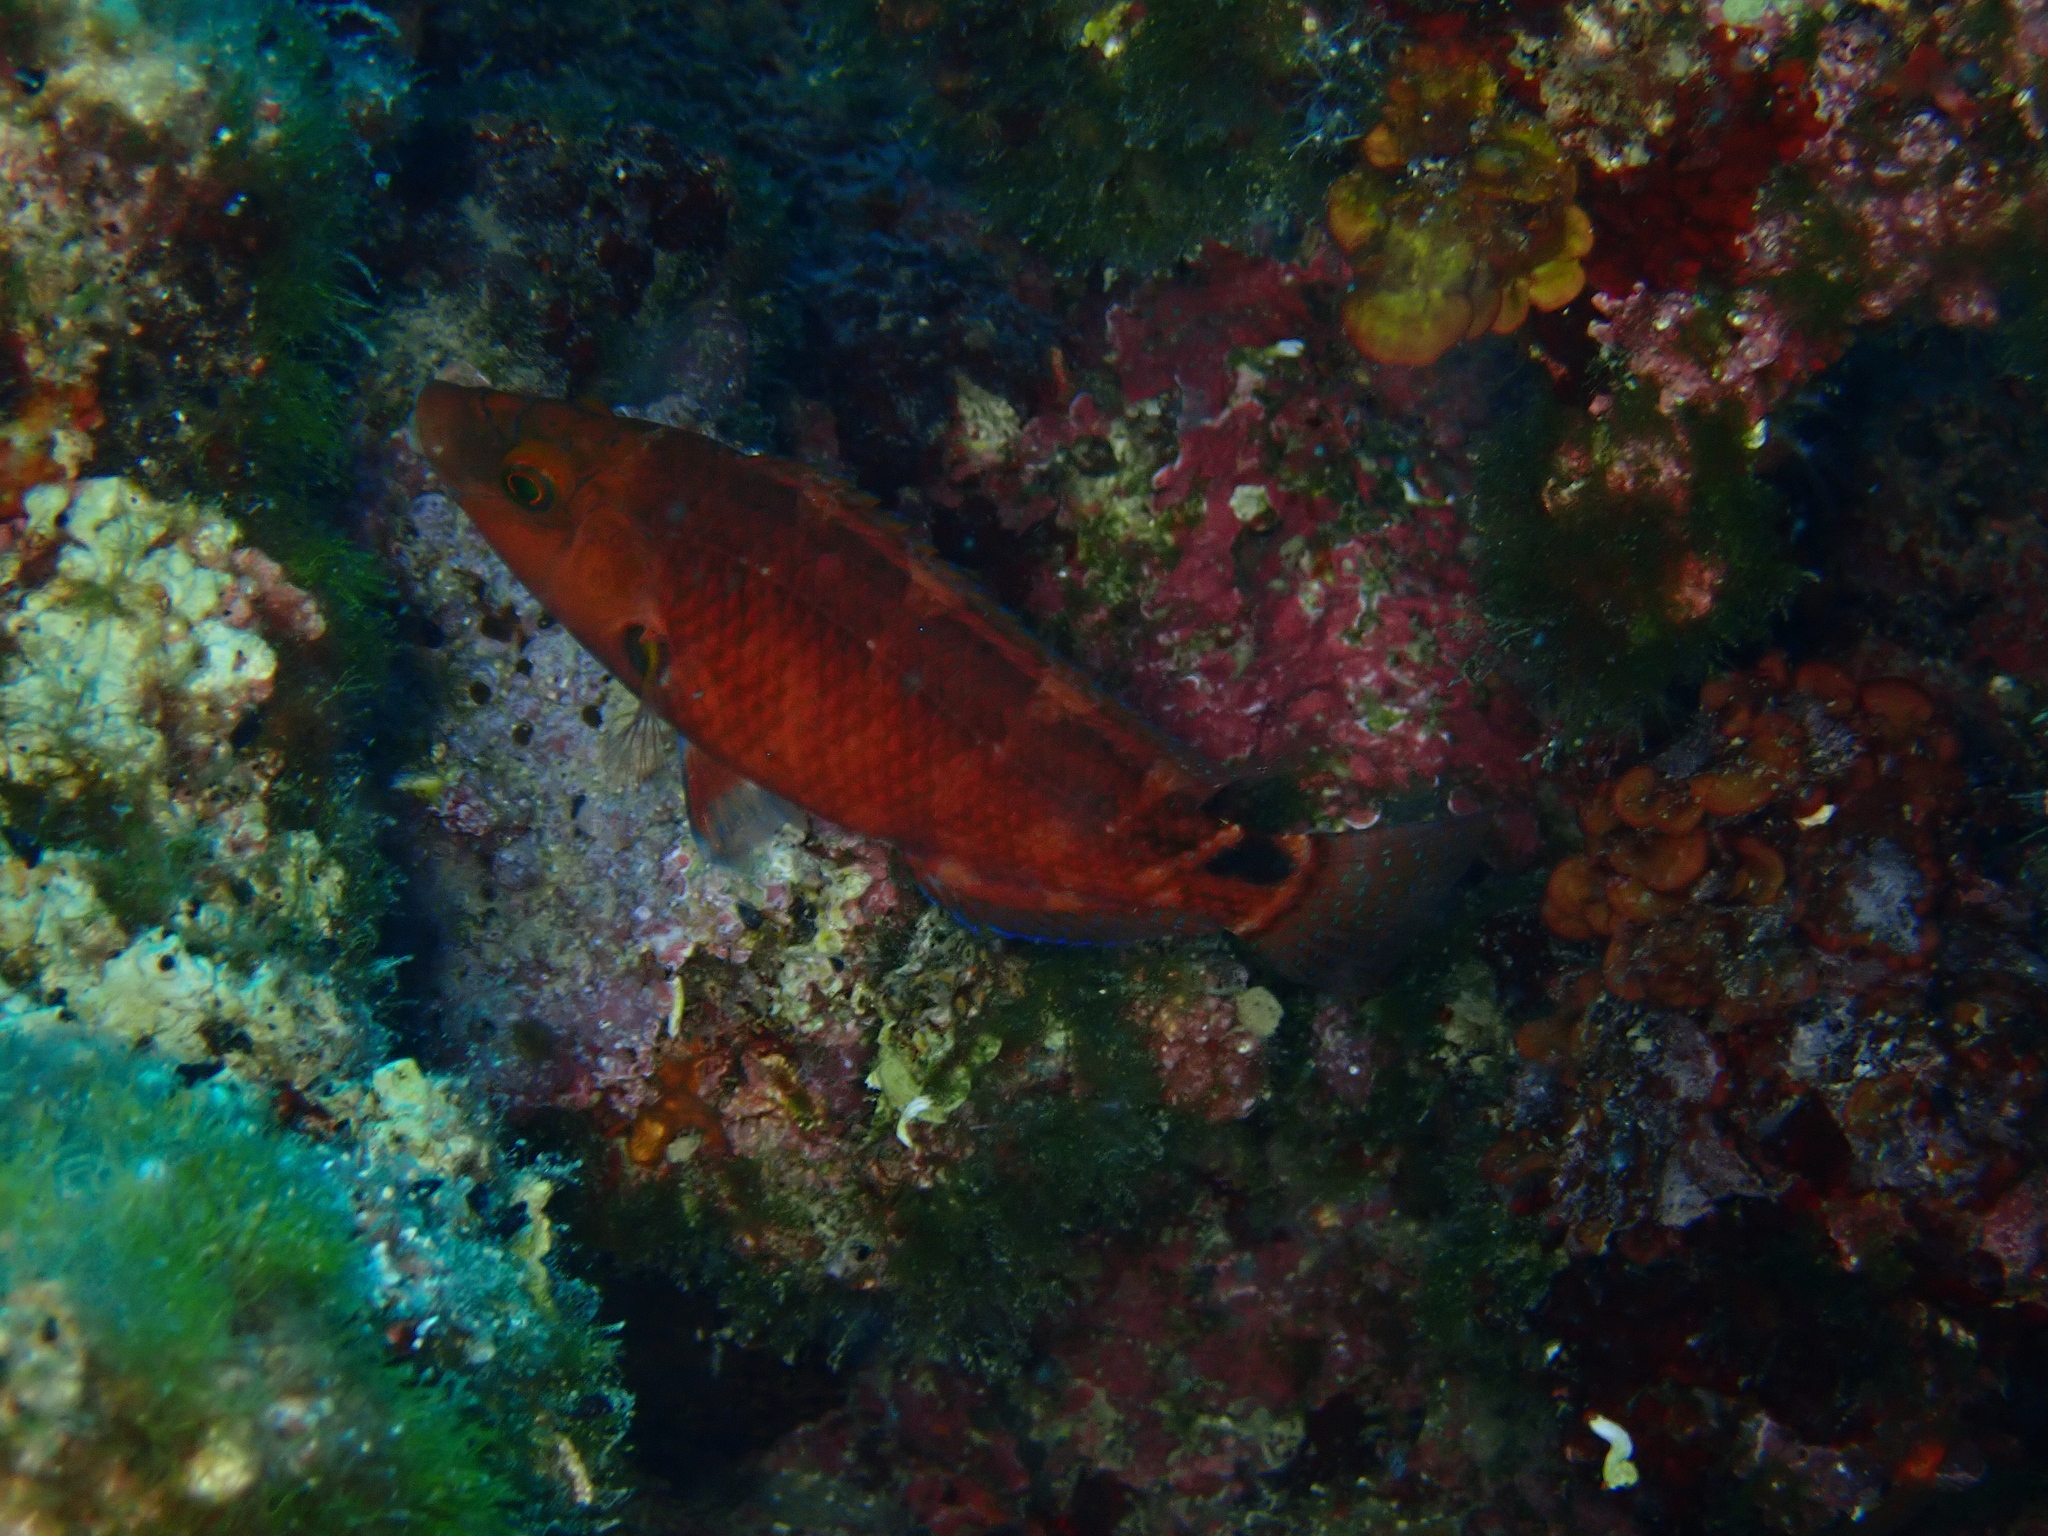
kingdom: Animalia
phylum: Chordata
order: Perciformes
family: Labridae
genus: Symphodus
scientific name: Symphodus mediterraneus
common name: Axillary wrasse
